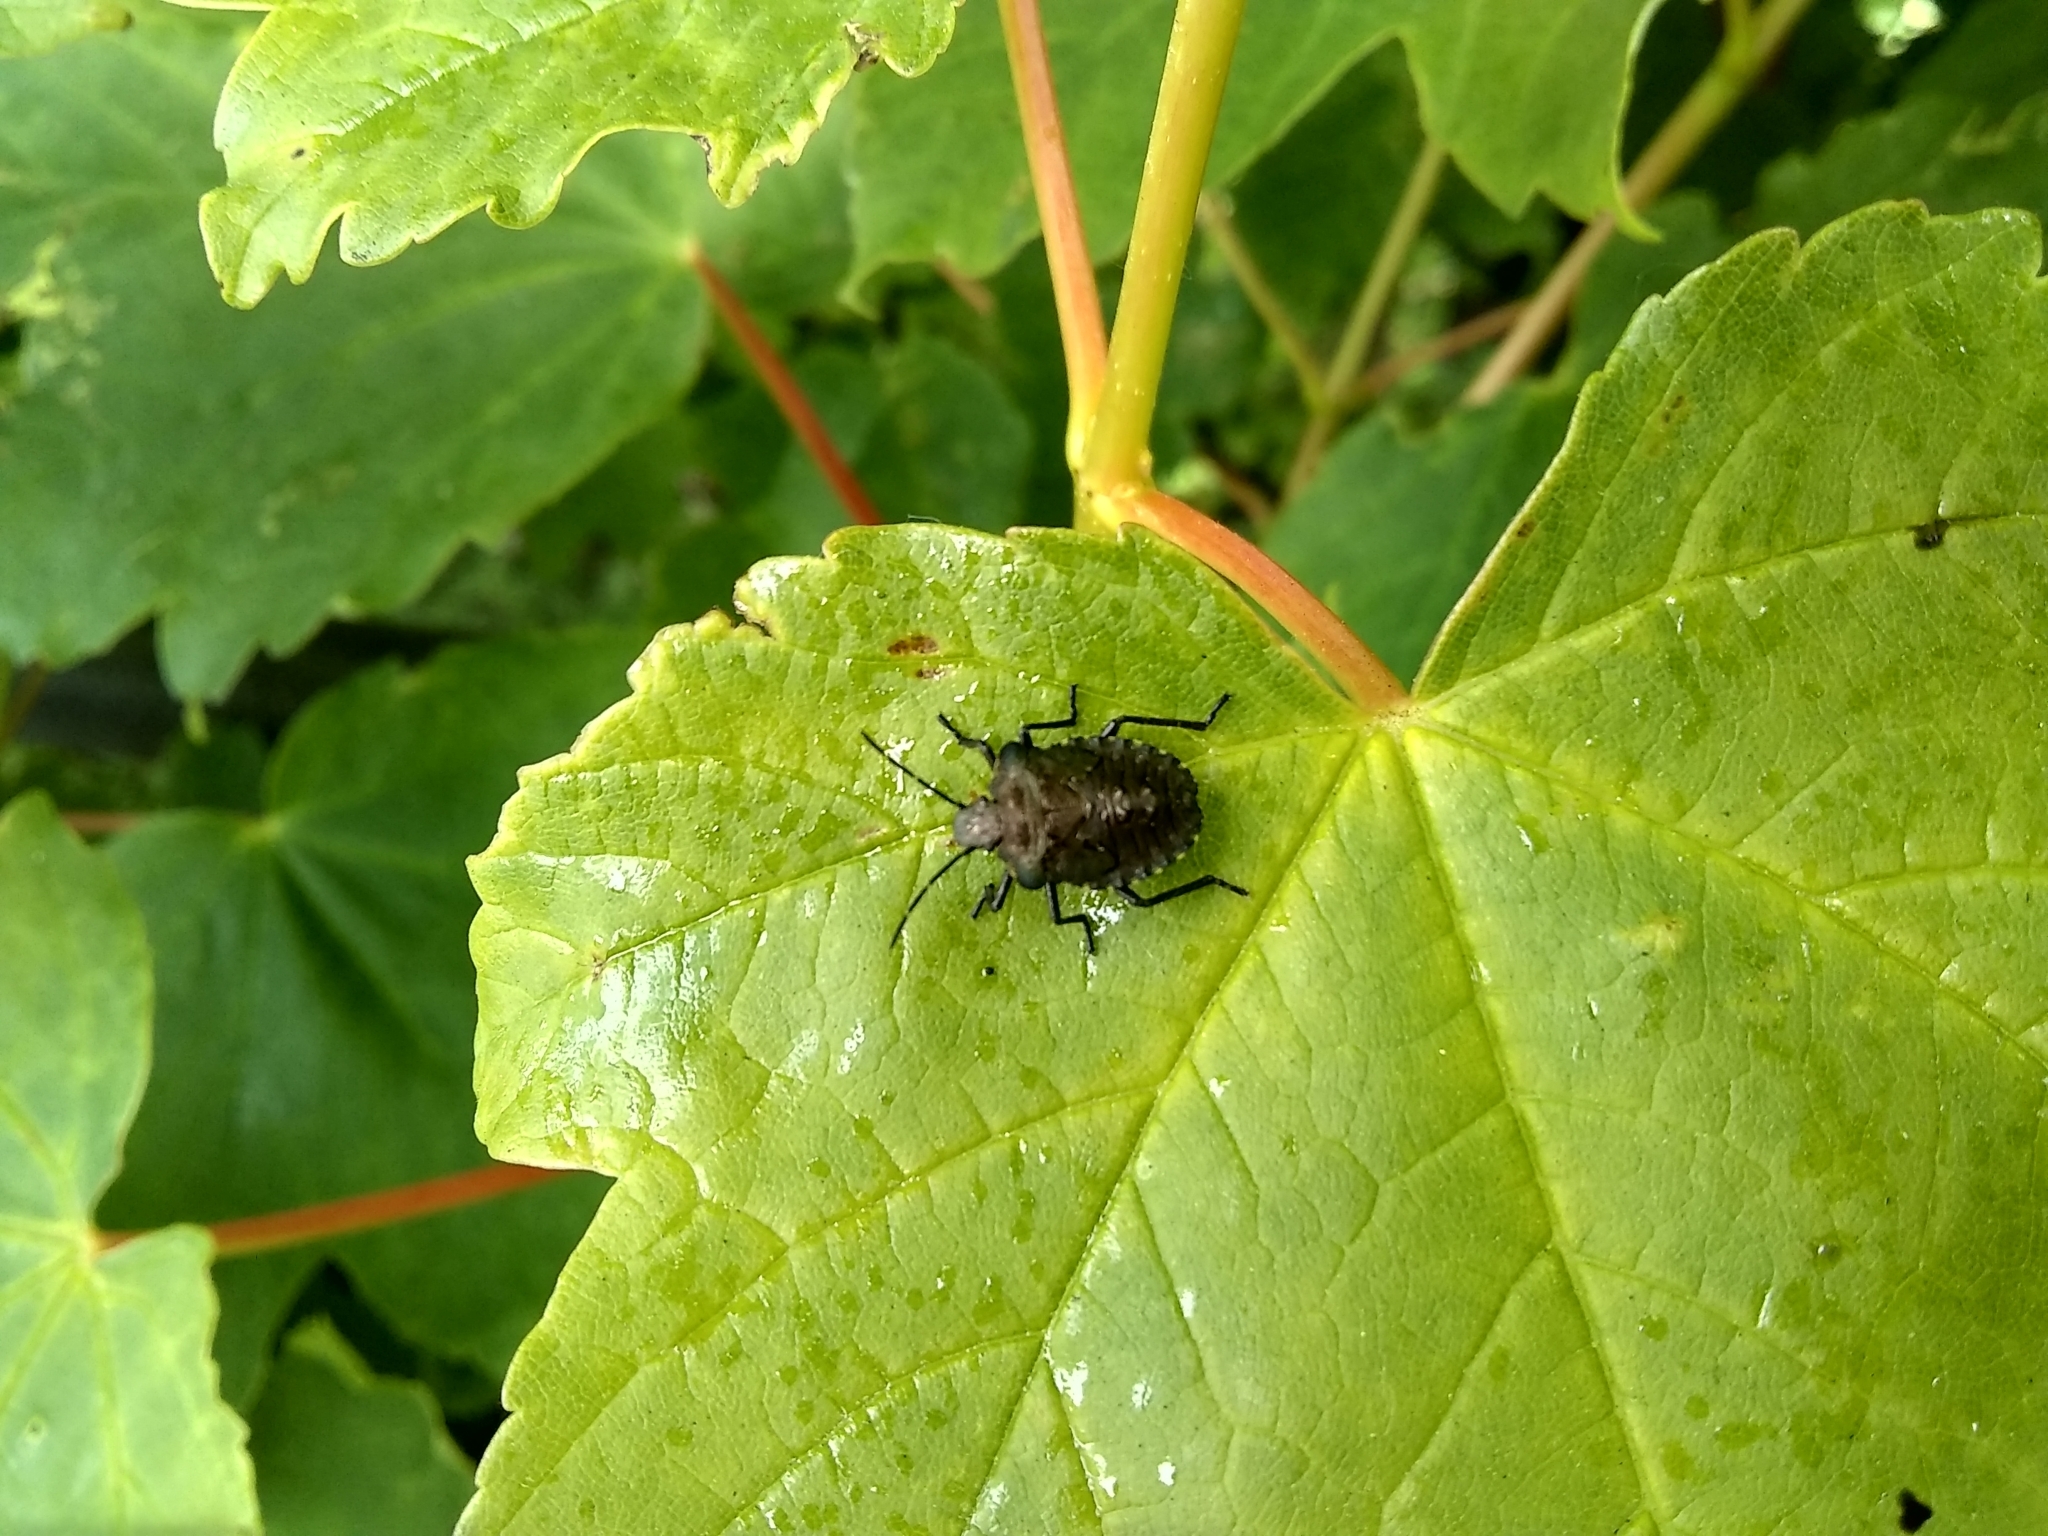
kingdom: Animalia
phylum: Arthropoda
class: Insecta
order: Hemiptera
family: Pentatomidae
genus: Pentatoma
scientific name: Pentatoma rufipes
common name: Forest bug
